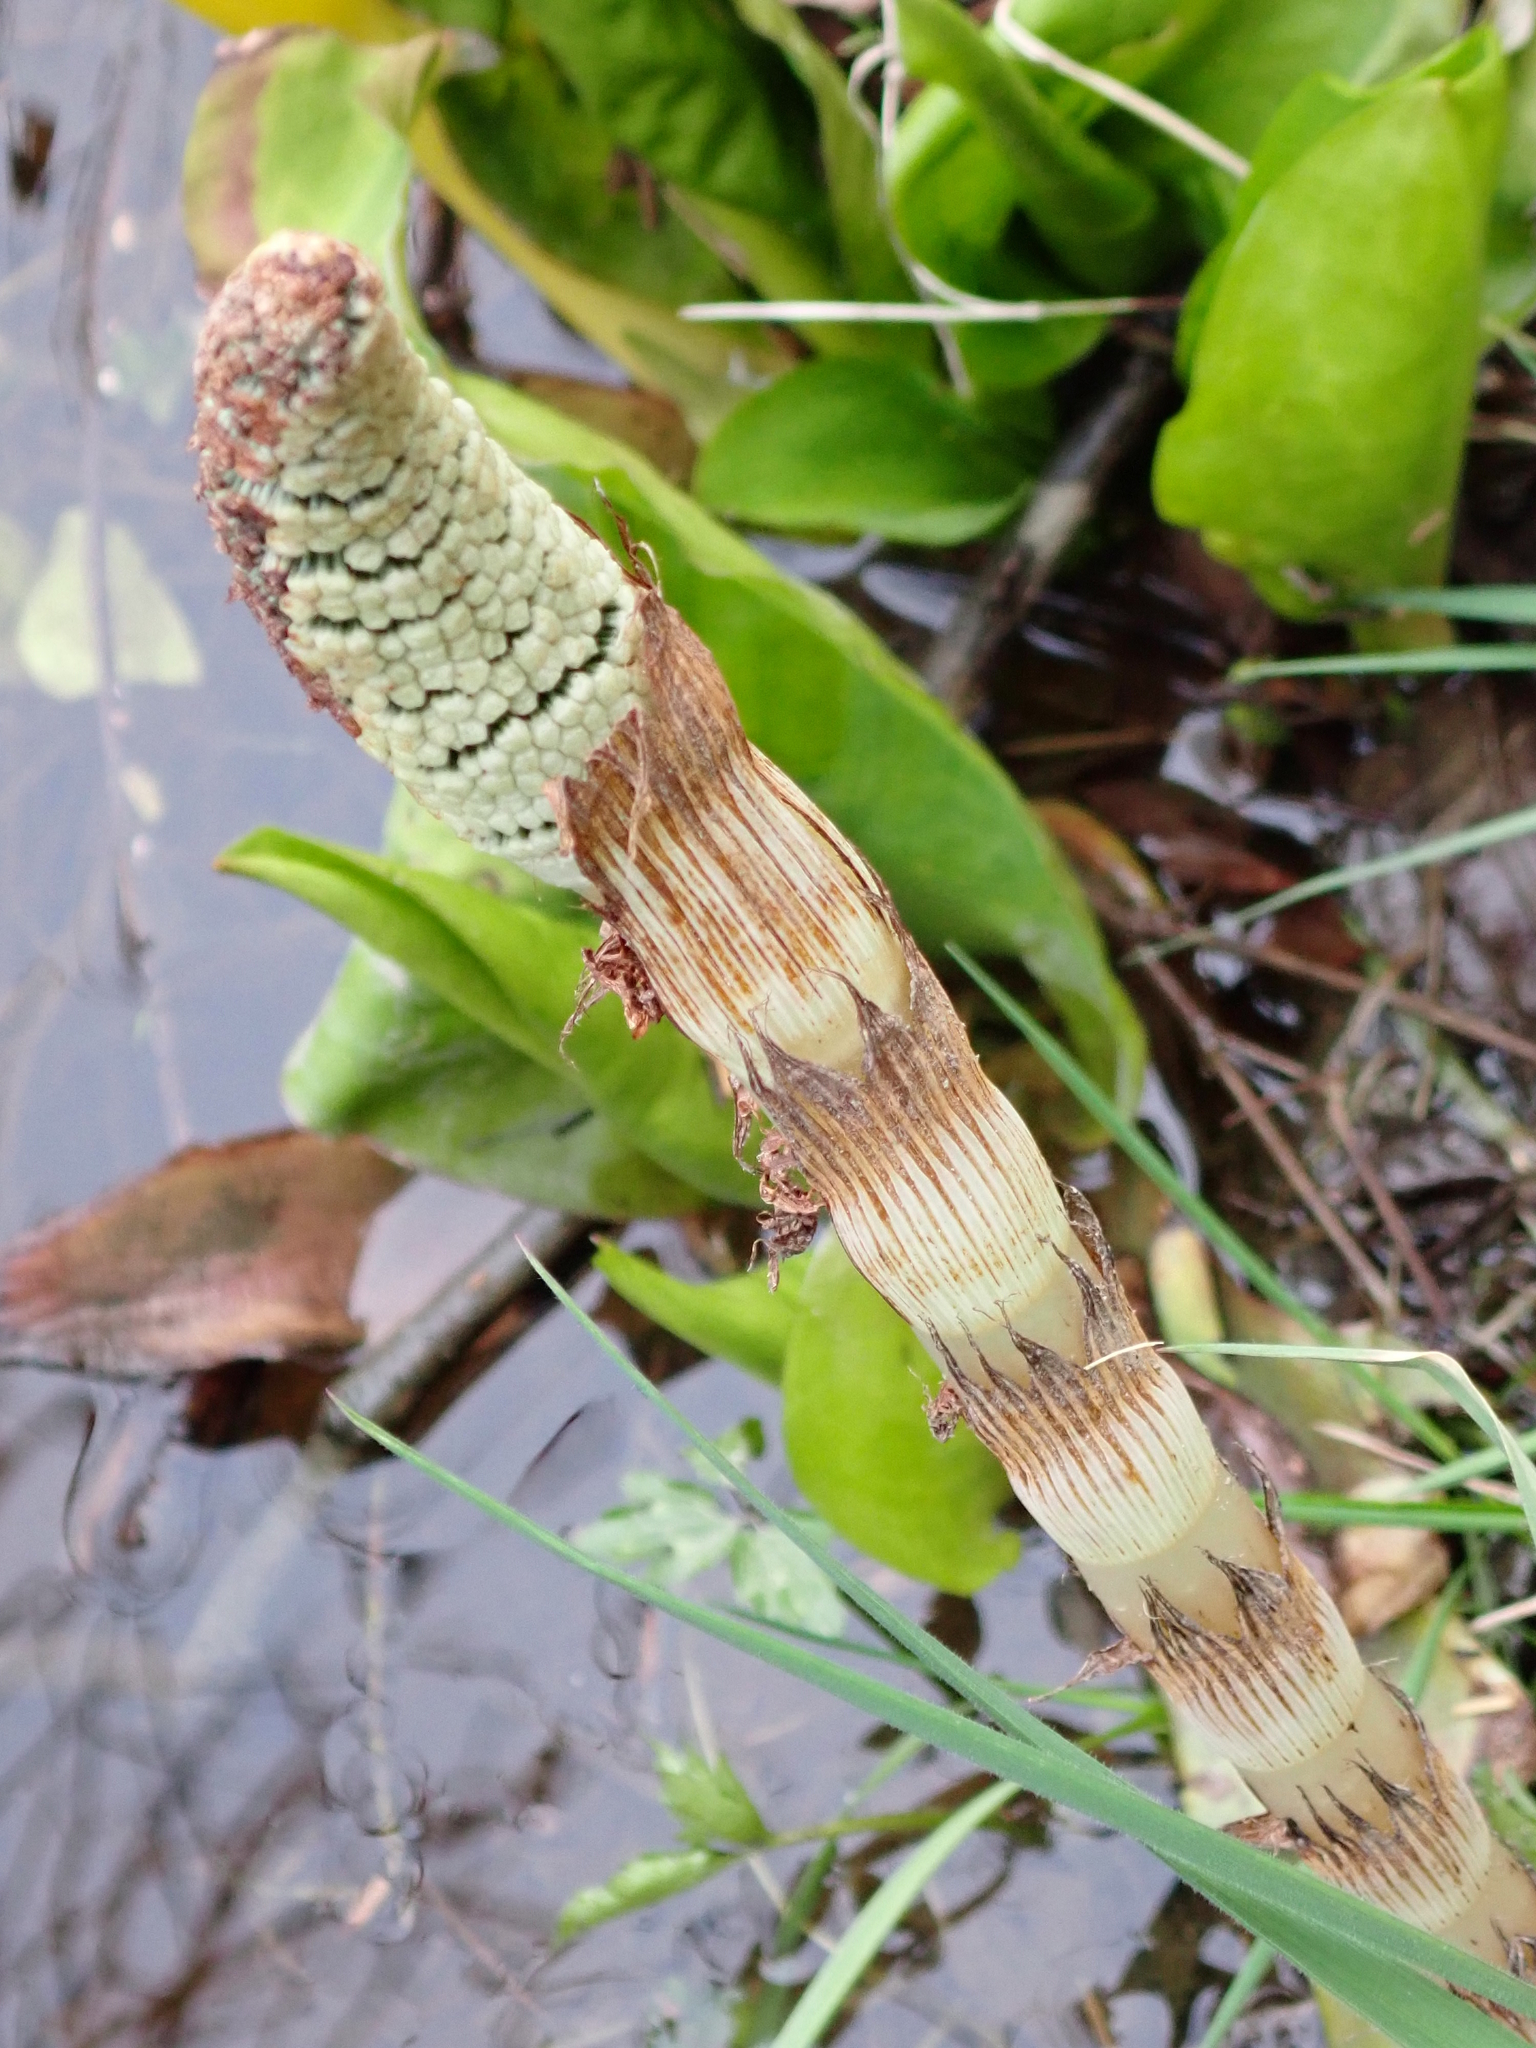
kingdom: Plantae
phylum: Tracheophyta
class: Polypodiopsida
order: Equisetales
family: Equisetaceae
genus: Equisetum
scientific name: Equisetum braunii
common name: Braun's horsetail
